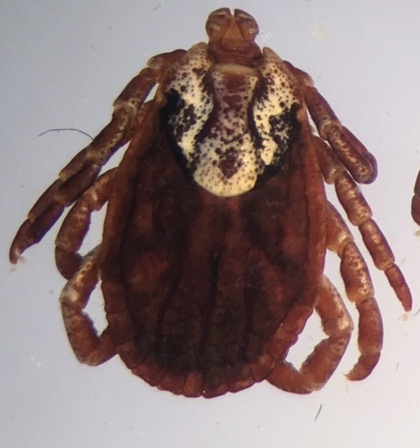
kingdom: Animalia
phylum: Arthropoda
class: Arachnida
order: Ixodida
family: Ixodidae
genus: Dermacentor
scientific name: Dermacentor marginatus
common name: Ornate sheep tick
